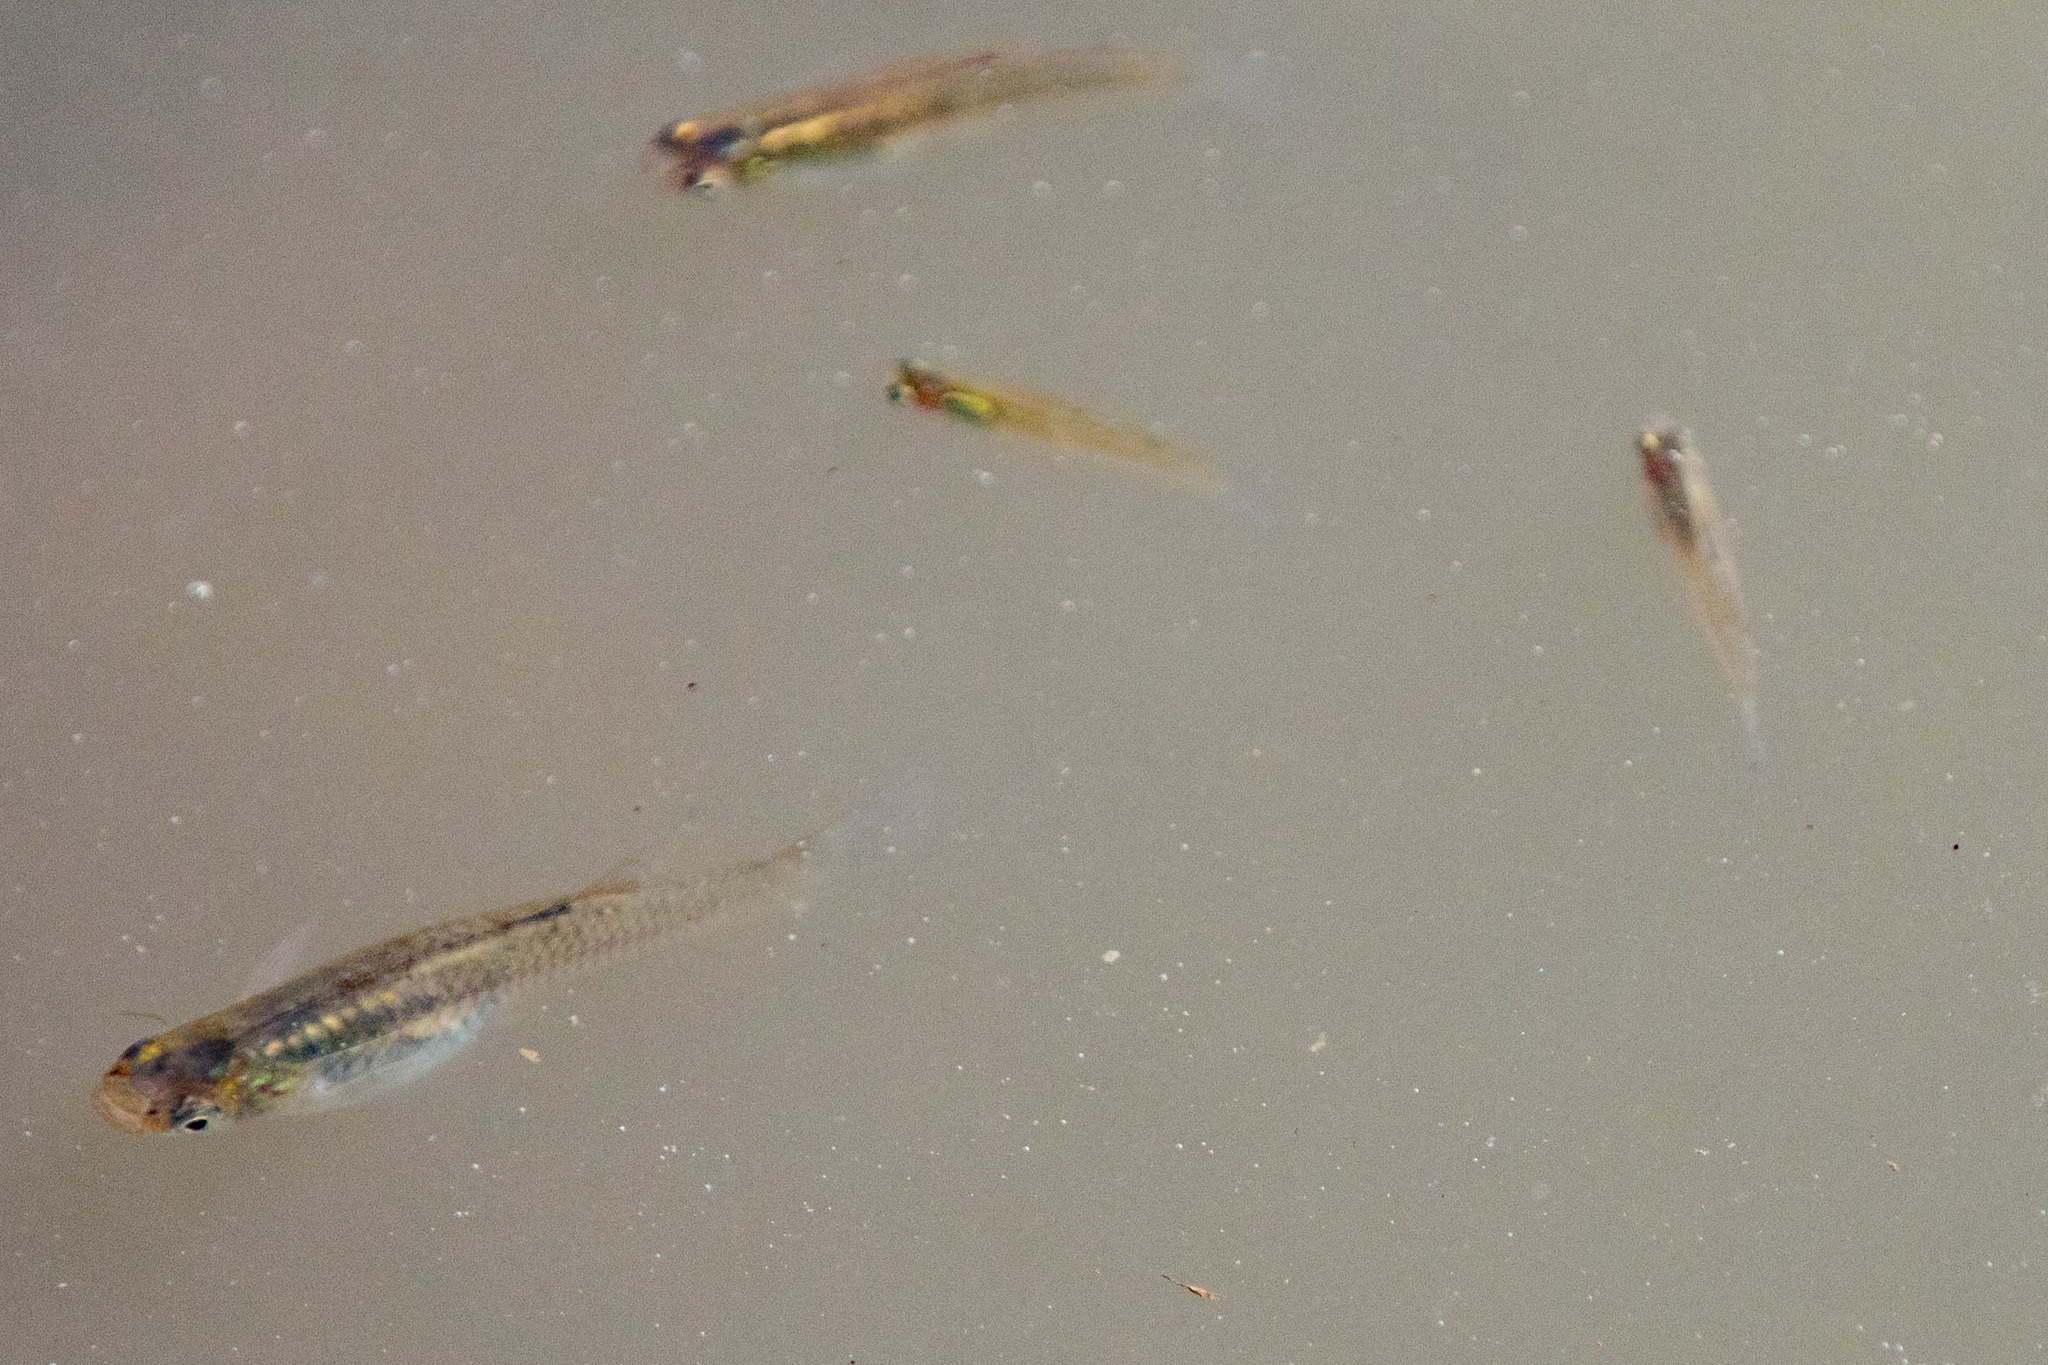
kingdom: Animalia
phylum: Chordata
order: Cyprinodontiformes
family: Poeciliidae
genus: Gambusia
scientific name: Gambusia affinis
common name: Mosquitofish
